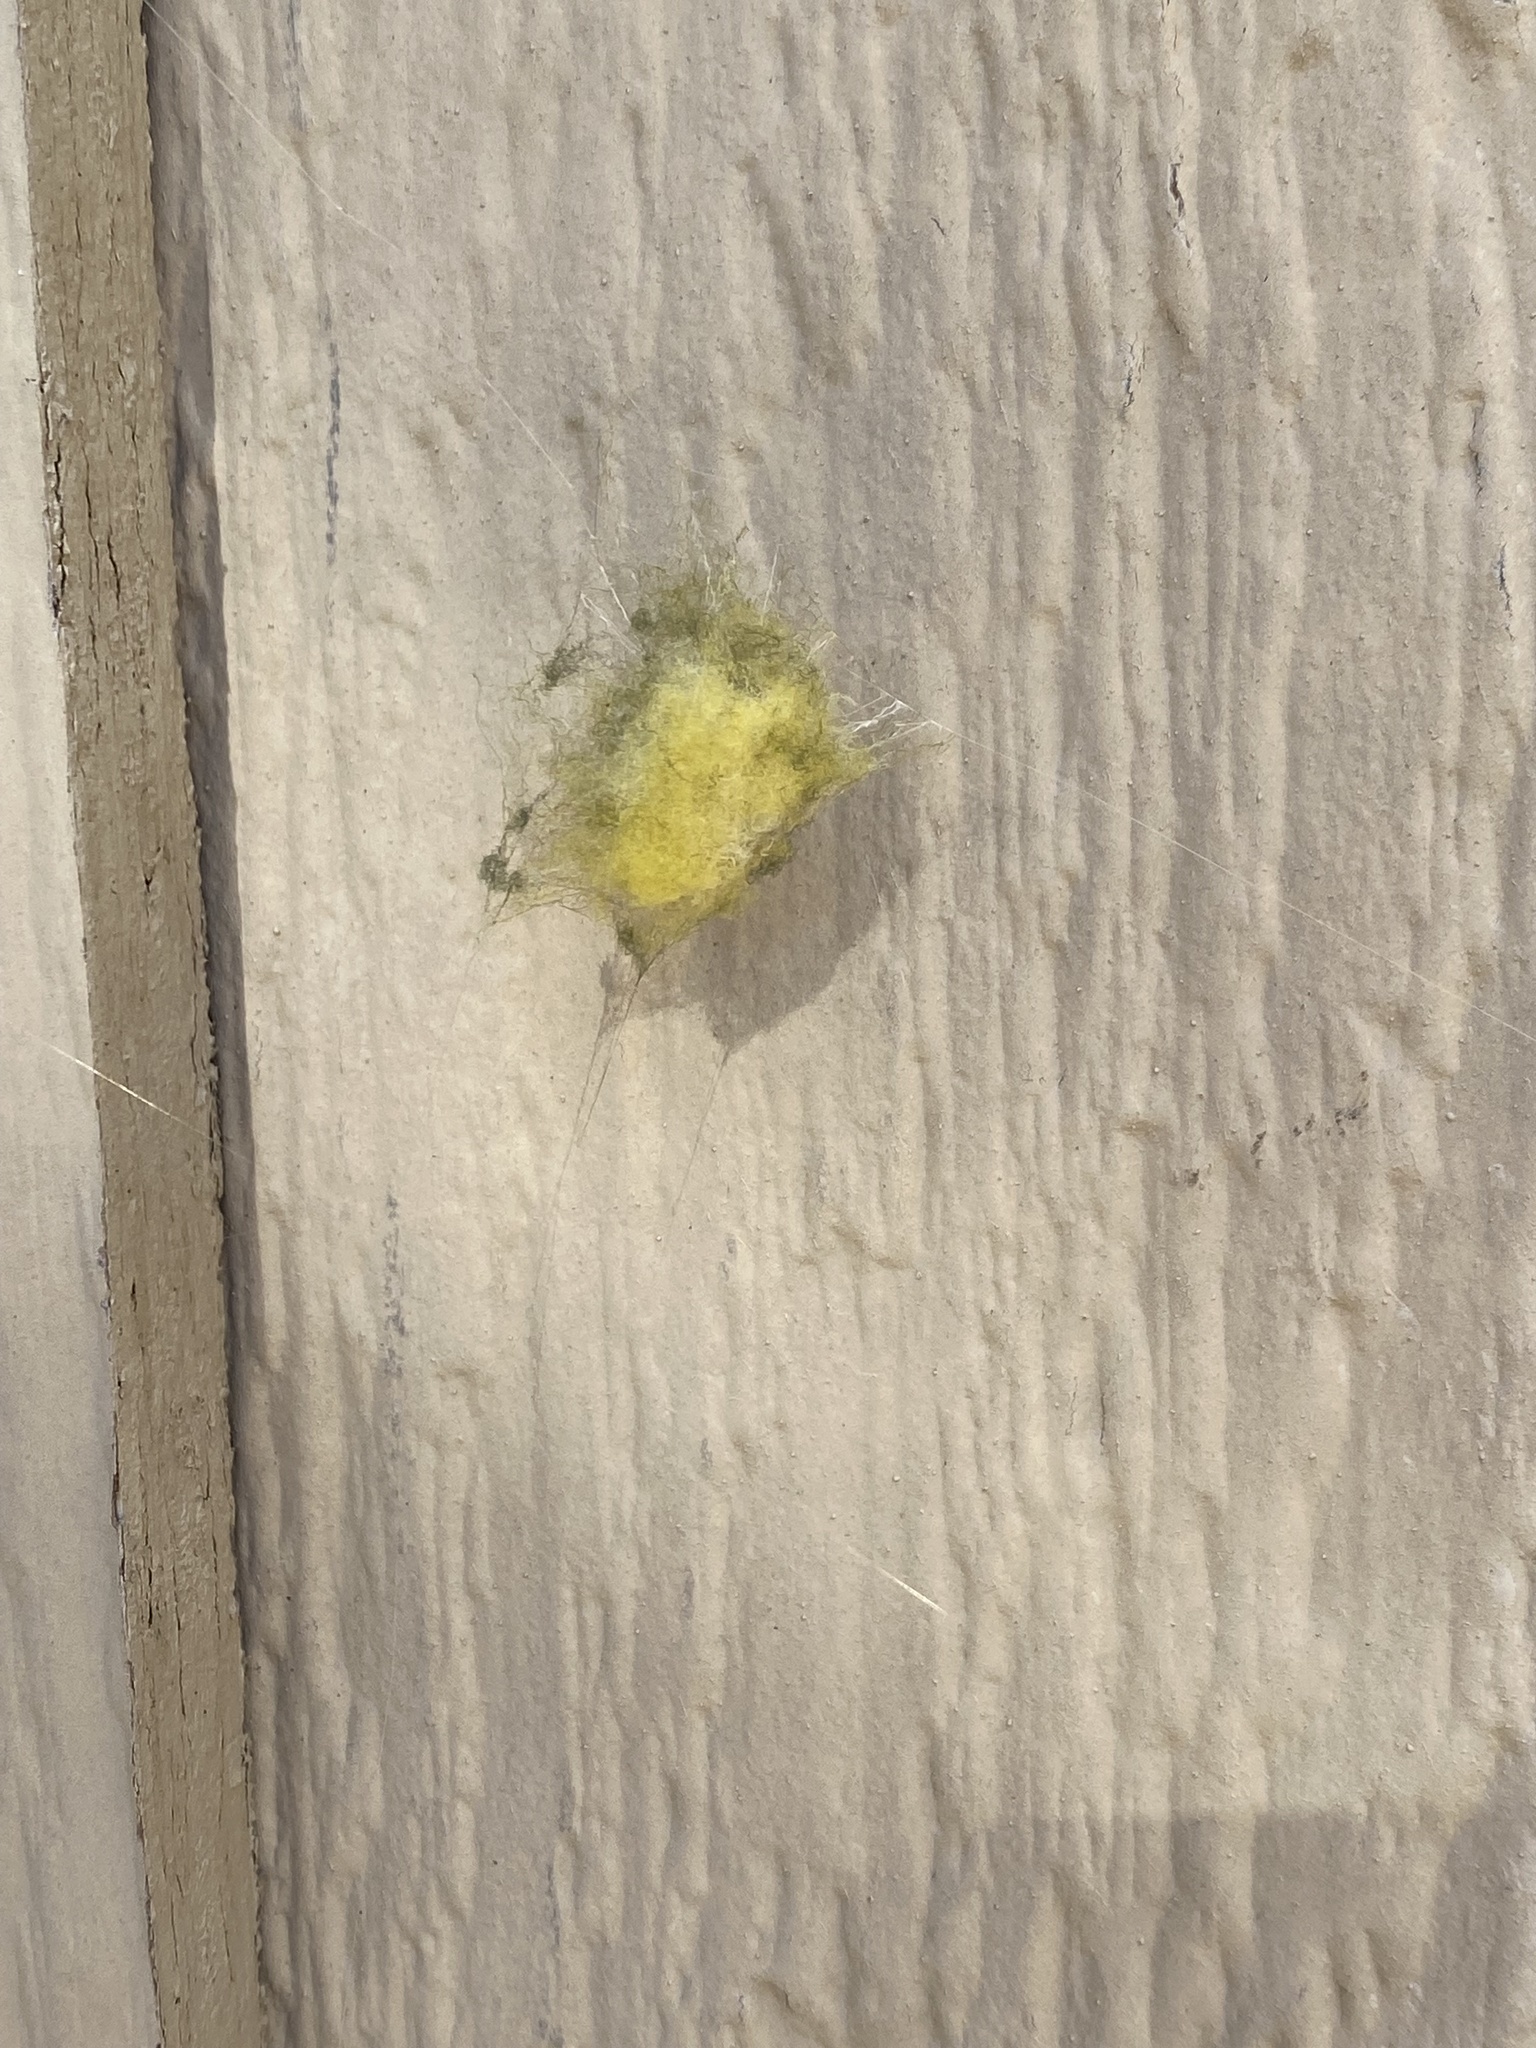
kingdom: Animalia
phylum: Arthropoda
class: Arachnida
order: Araneae
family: Araneidae
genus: Argiope
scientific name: Argiope argentata
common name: Orb weavers
